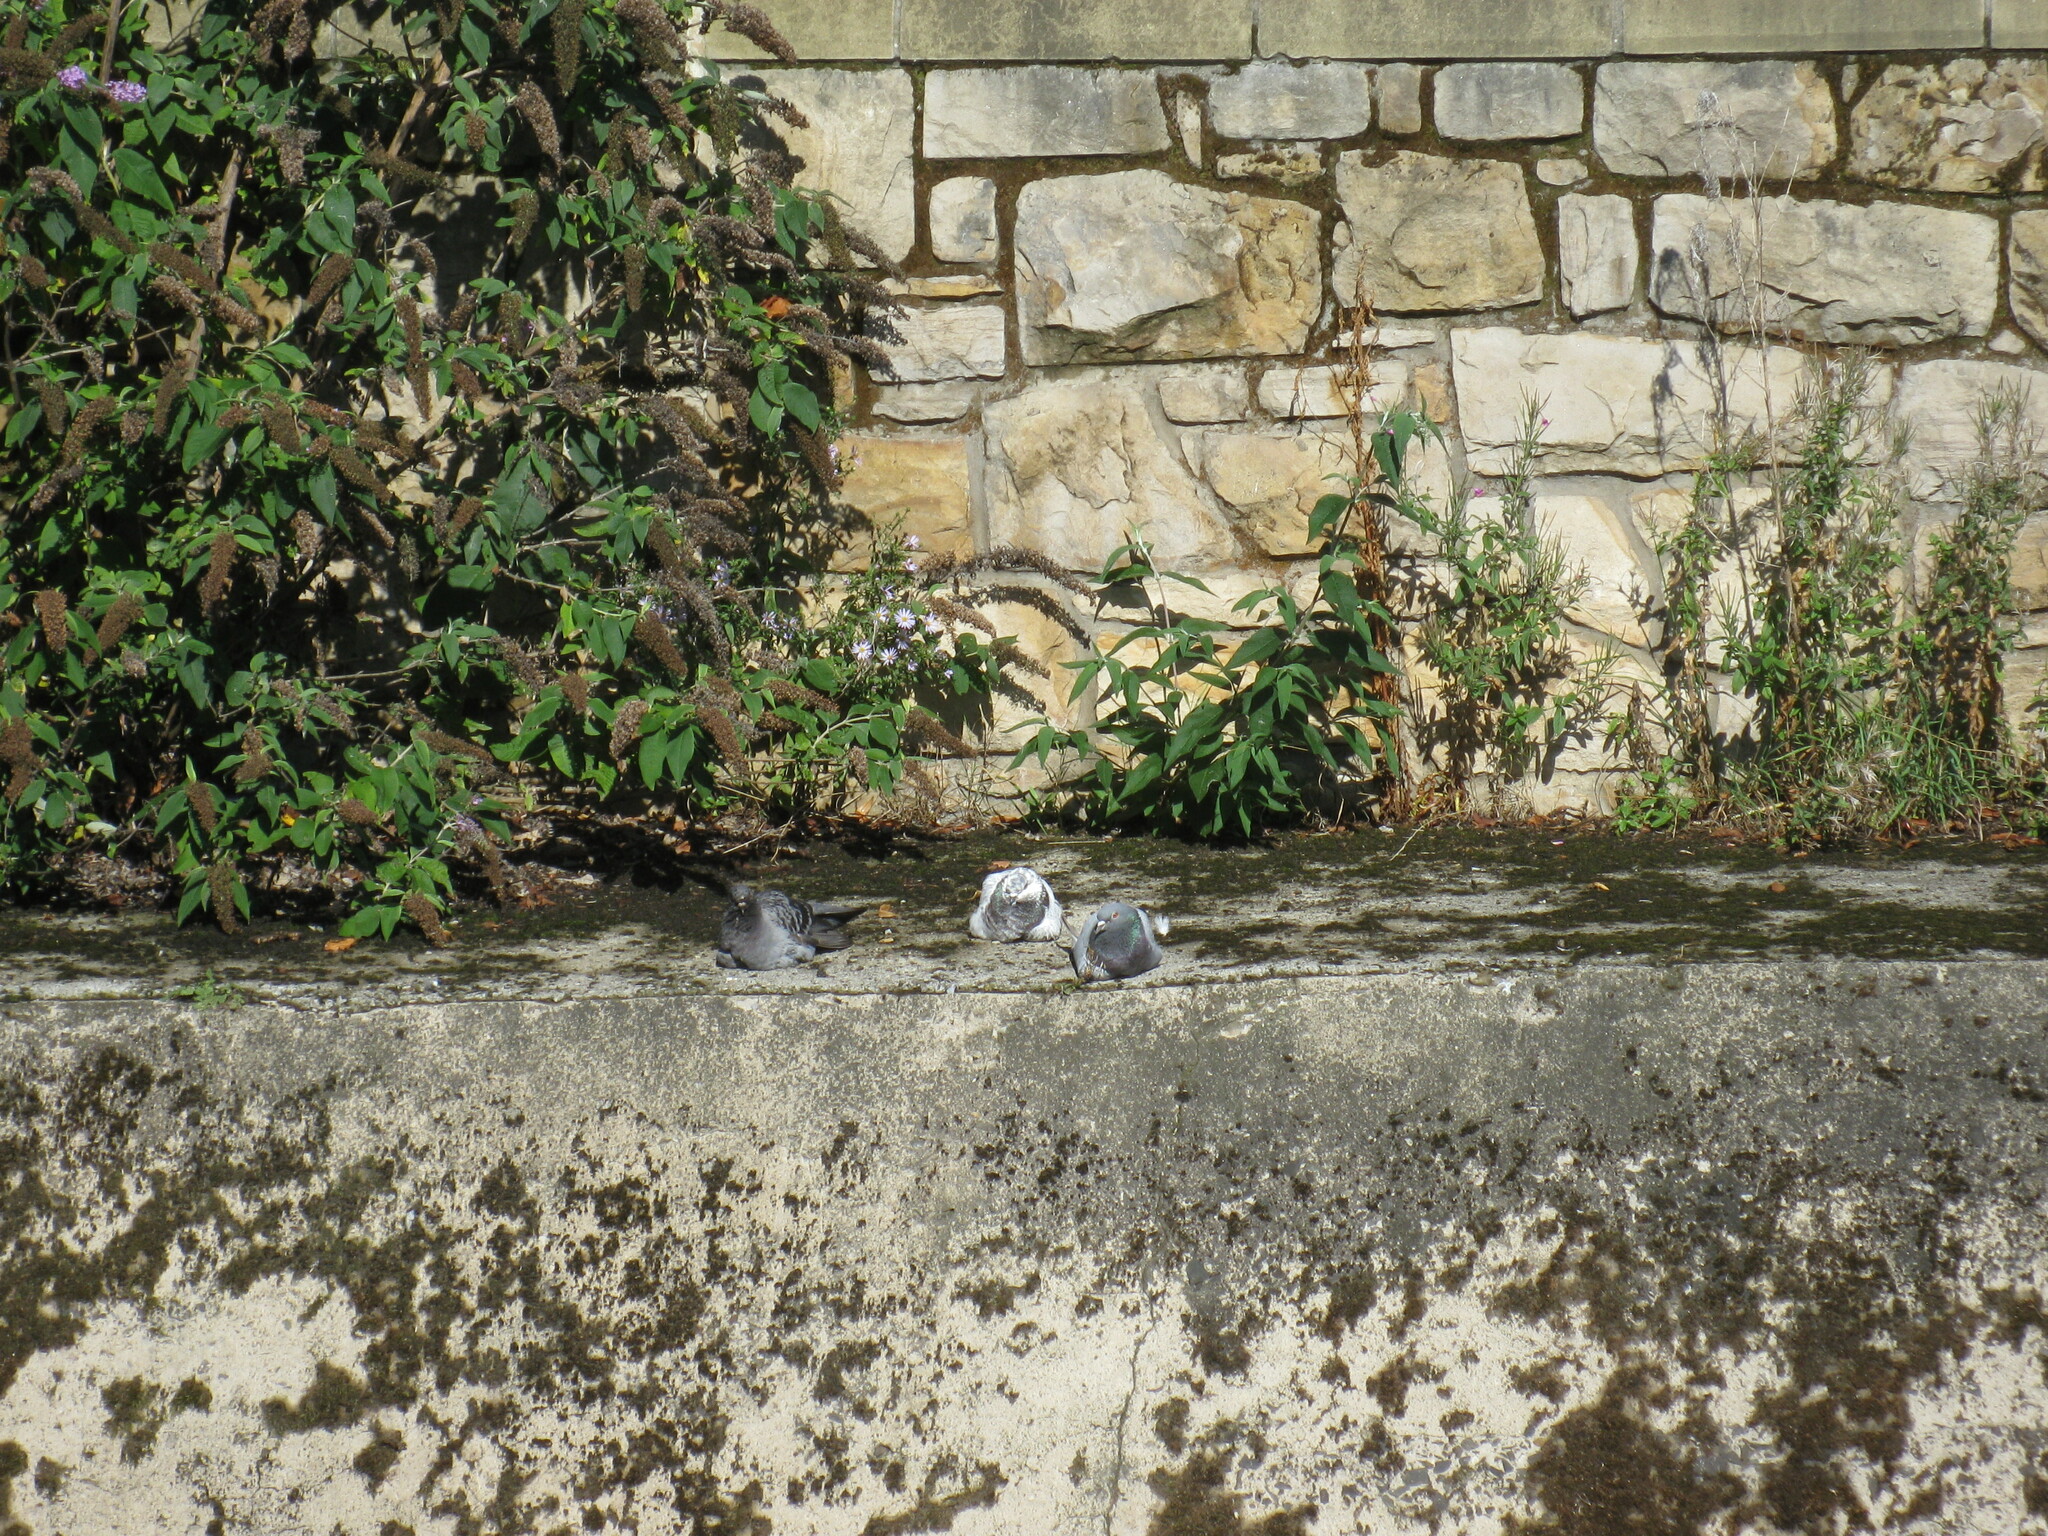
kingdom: Animalia
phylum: Chordata
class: Aves
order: Columbiformes
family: Columbidae
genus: Columba
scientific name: Columba livia
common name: Rock pigeon
